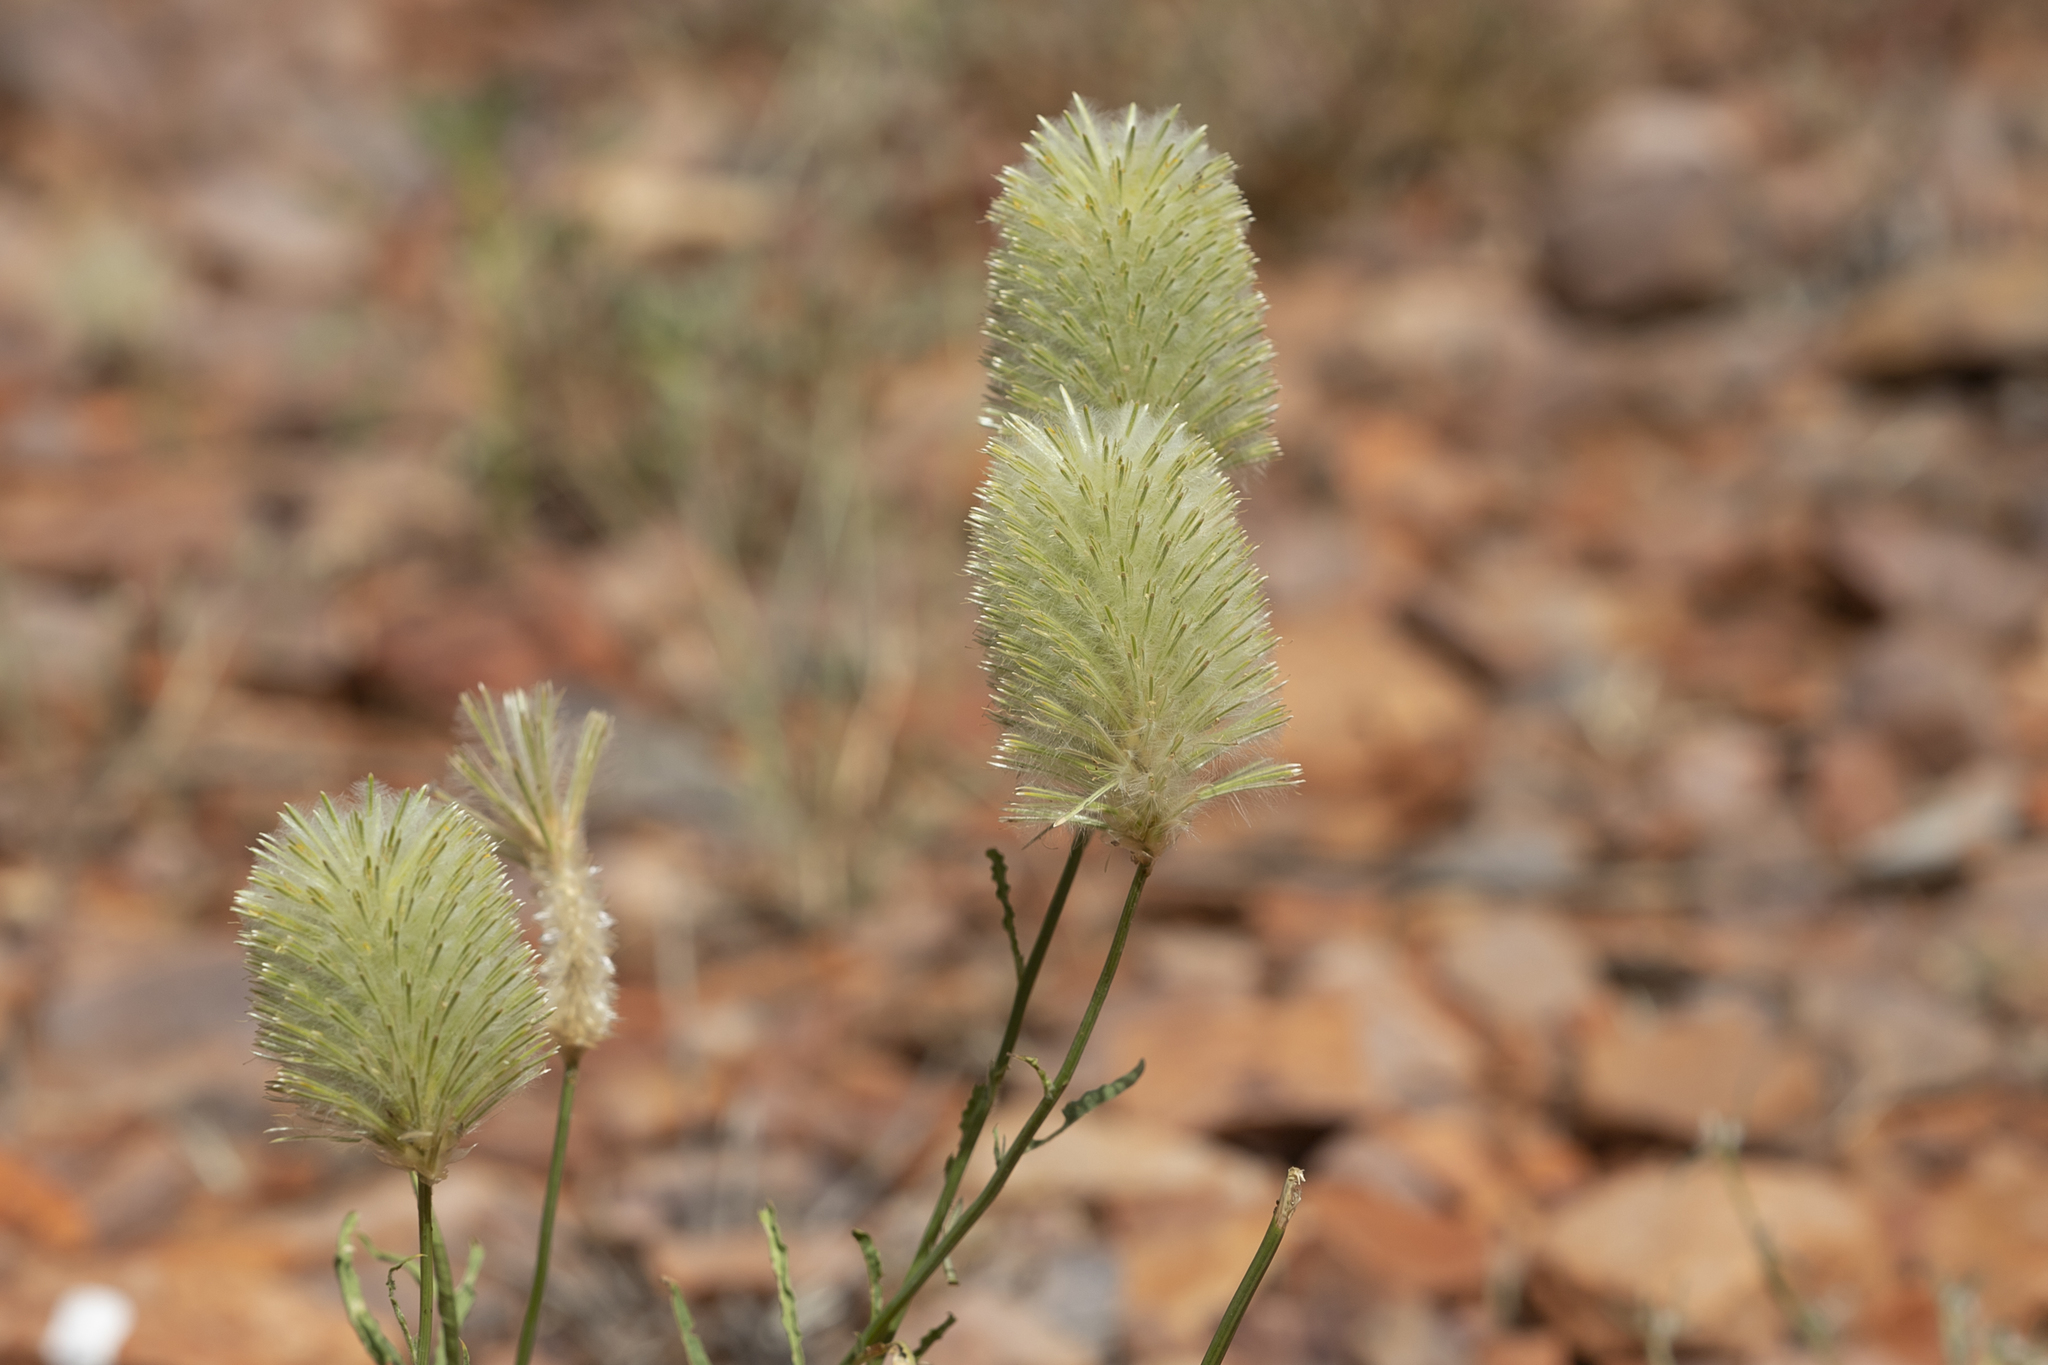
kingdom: Plantae
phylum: Tracheophyta
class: Magnoliopsida
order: Caryophyllales
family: Amaranthaceae
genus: Ptilotus
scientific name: Ptilotus xerophilus
